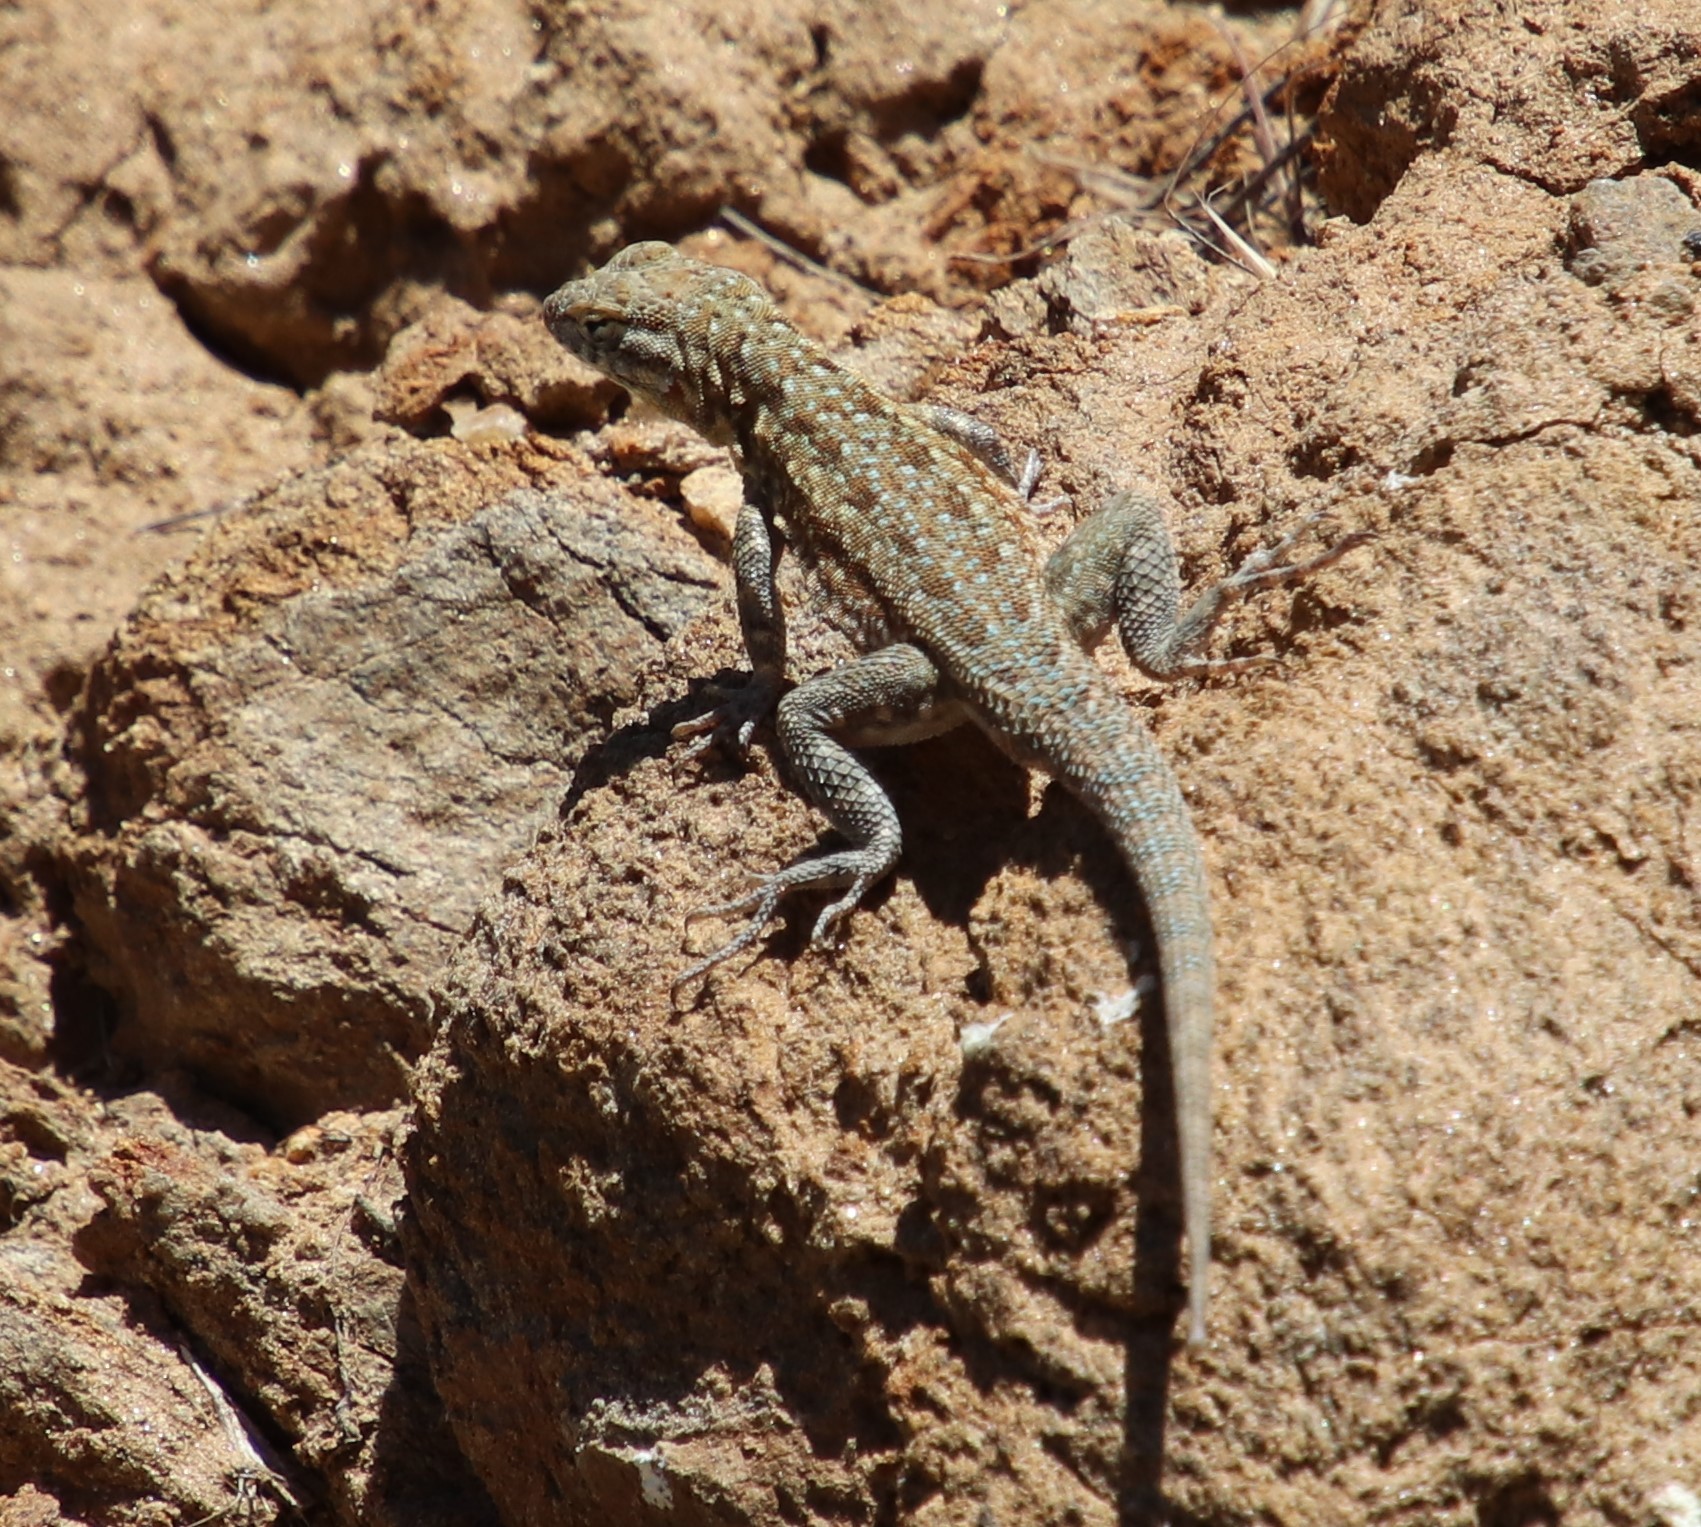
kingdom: Animalia
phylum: Chordata
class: Squamata
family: Phrynosomatidae
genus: Uta
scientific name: Uta stansburiana
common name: Side-blotched lizard
